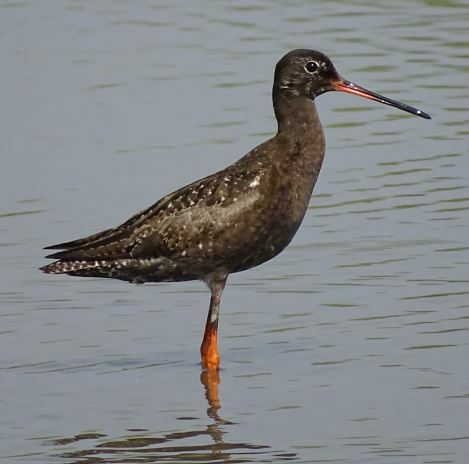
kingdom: Animalia
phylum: Chordata
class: Aves
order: Charadriiformes
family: Scolopacidae
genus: Tringa
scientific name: Tringa erythropus
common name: Spotted redshank
